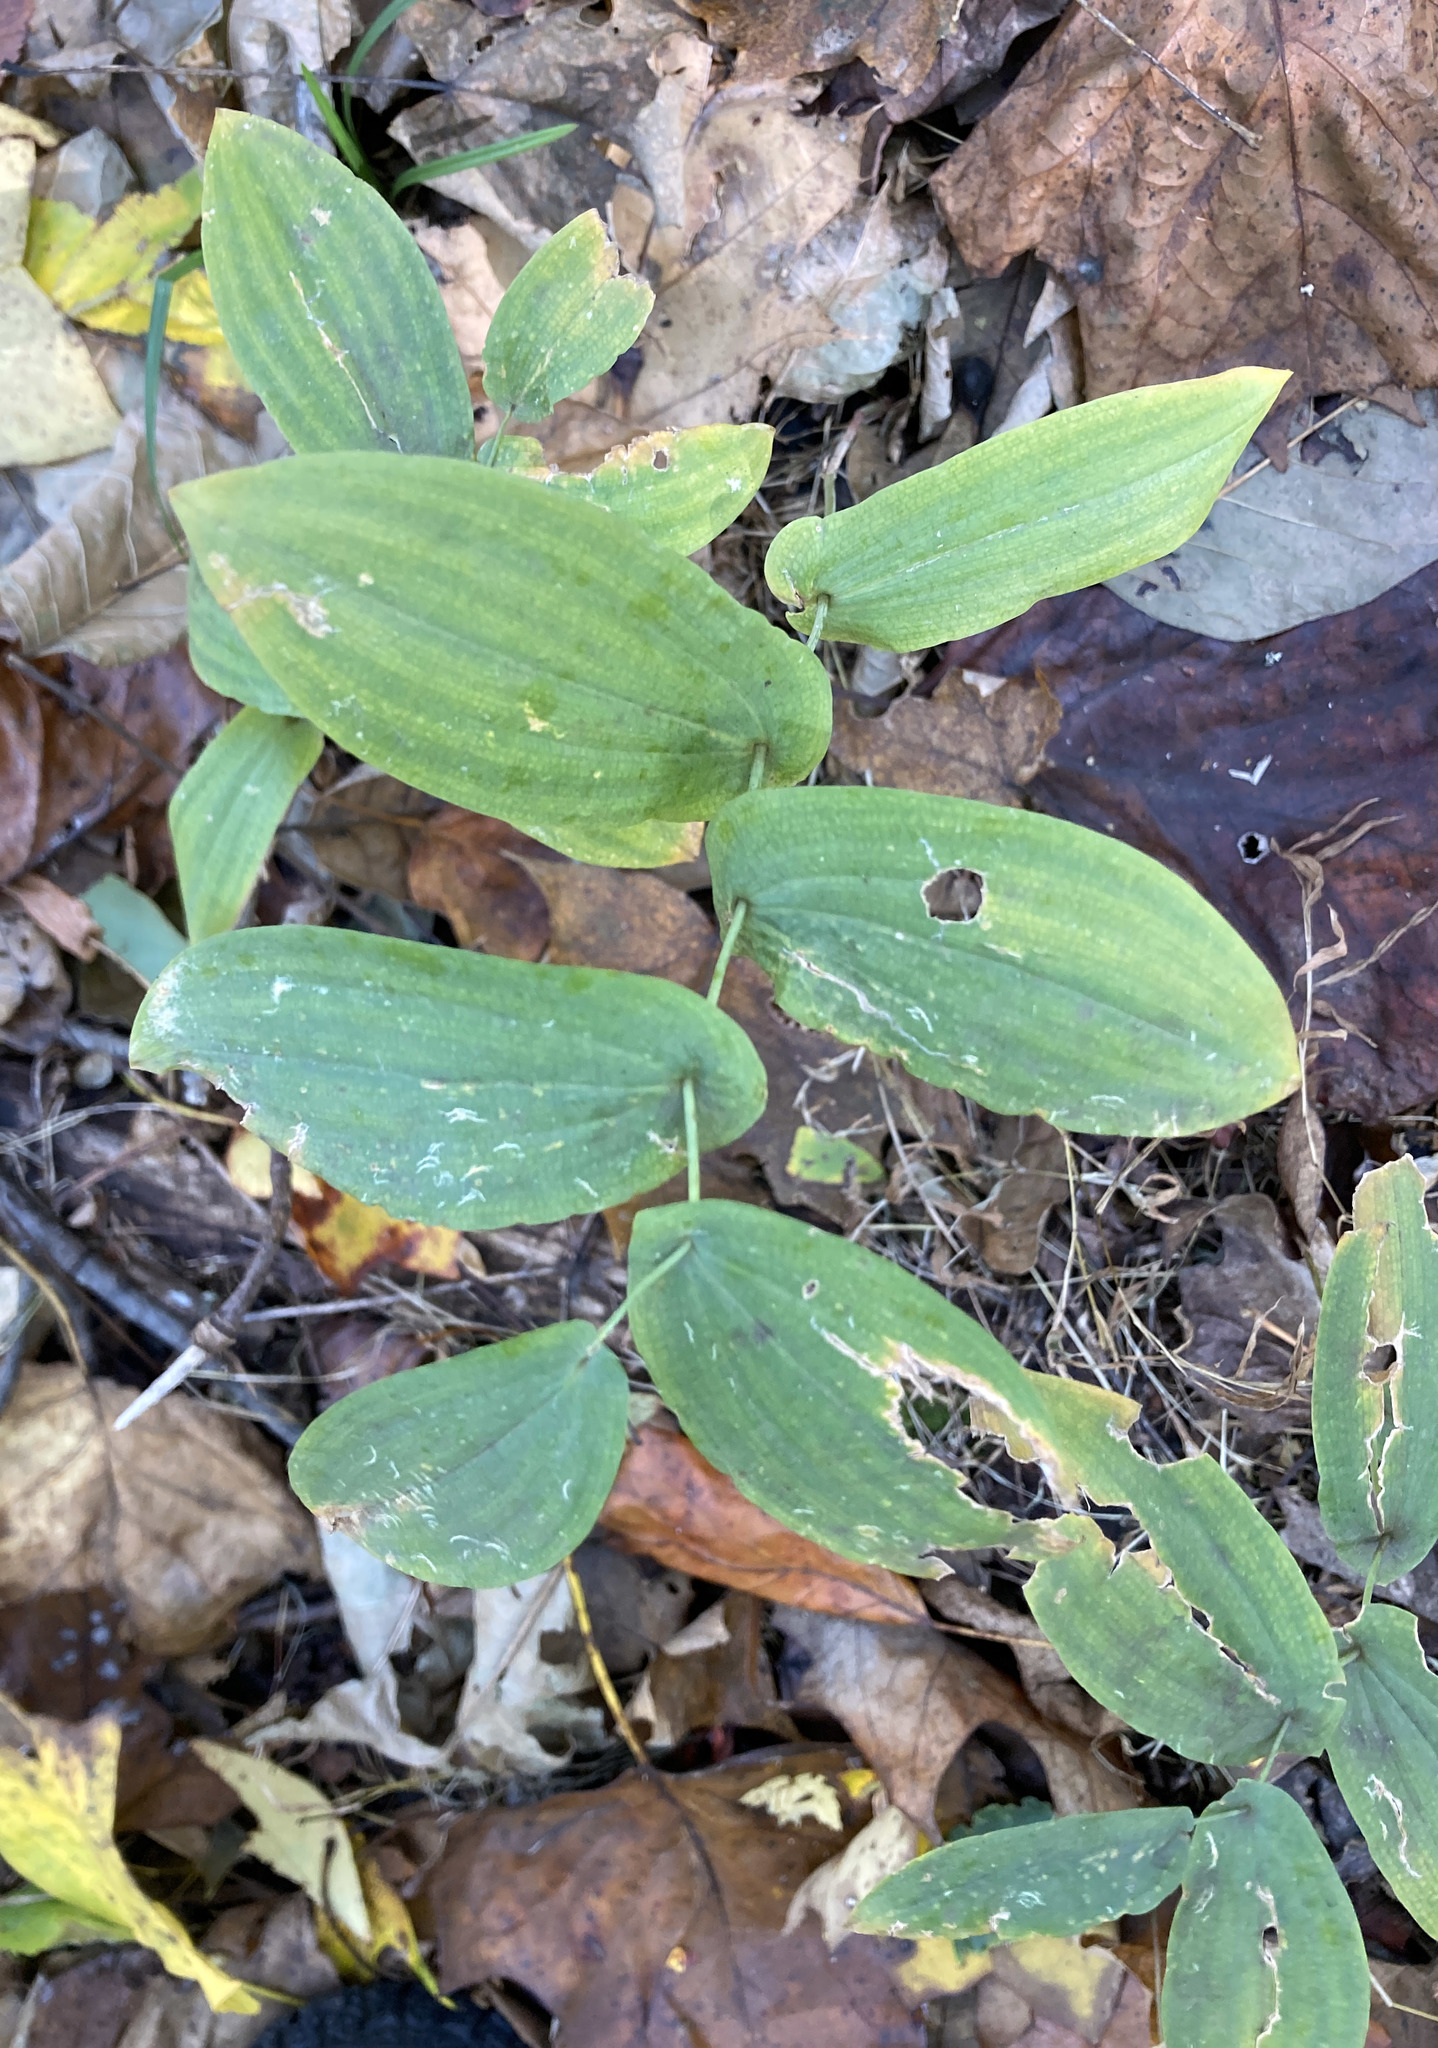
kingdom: Plantae
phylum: Tracheophyta
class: Liliopsida
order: Liliales
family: Colchicaceae
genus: Uvularia
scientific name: Uvularia perfoliata
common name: Perfoliate bellwort
